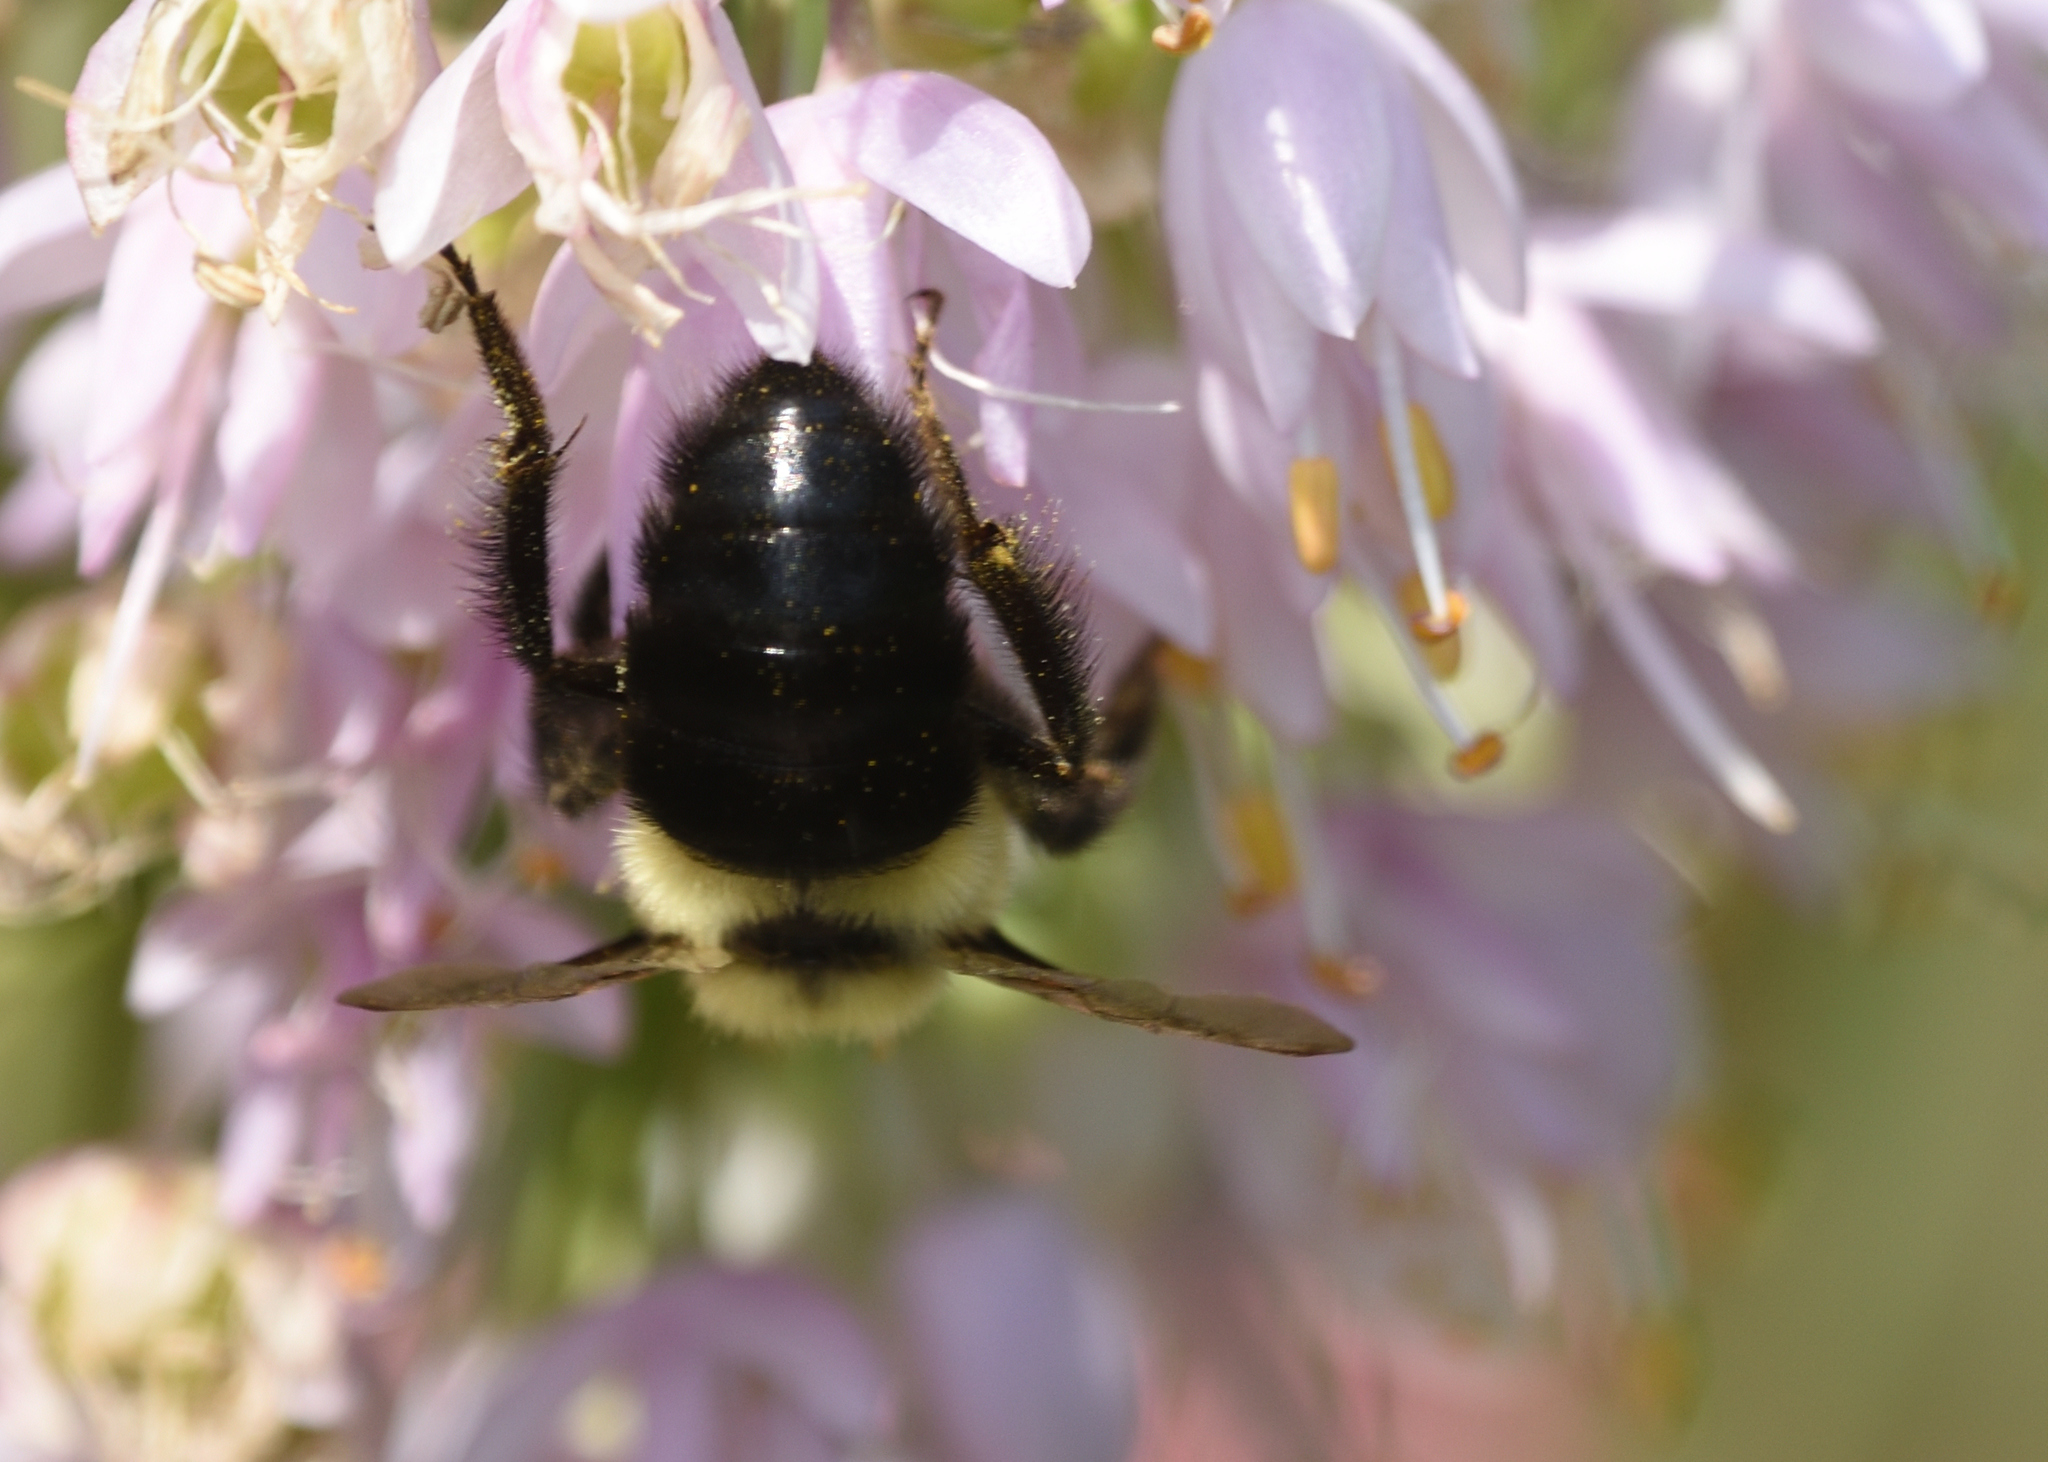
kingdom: Animalia
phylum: Arthropoda
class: Insecta
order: Hymenoptera
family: Apidae
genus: Bombus
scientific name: Bombus impatiens
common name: Common eastern bumble bee
